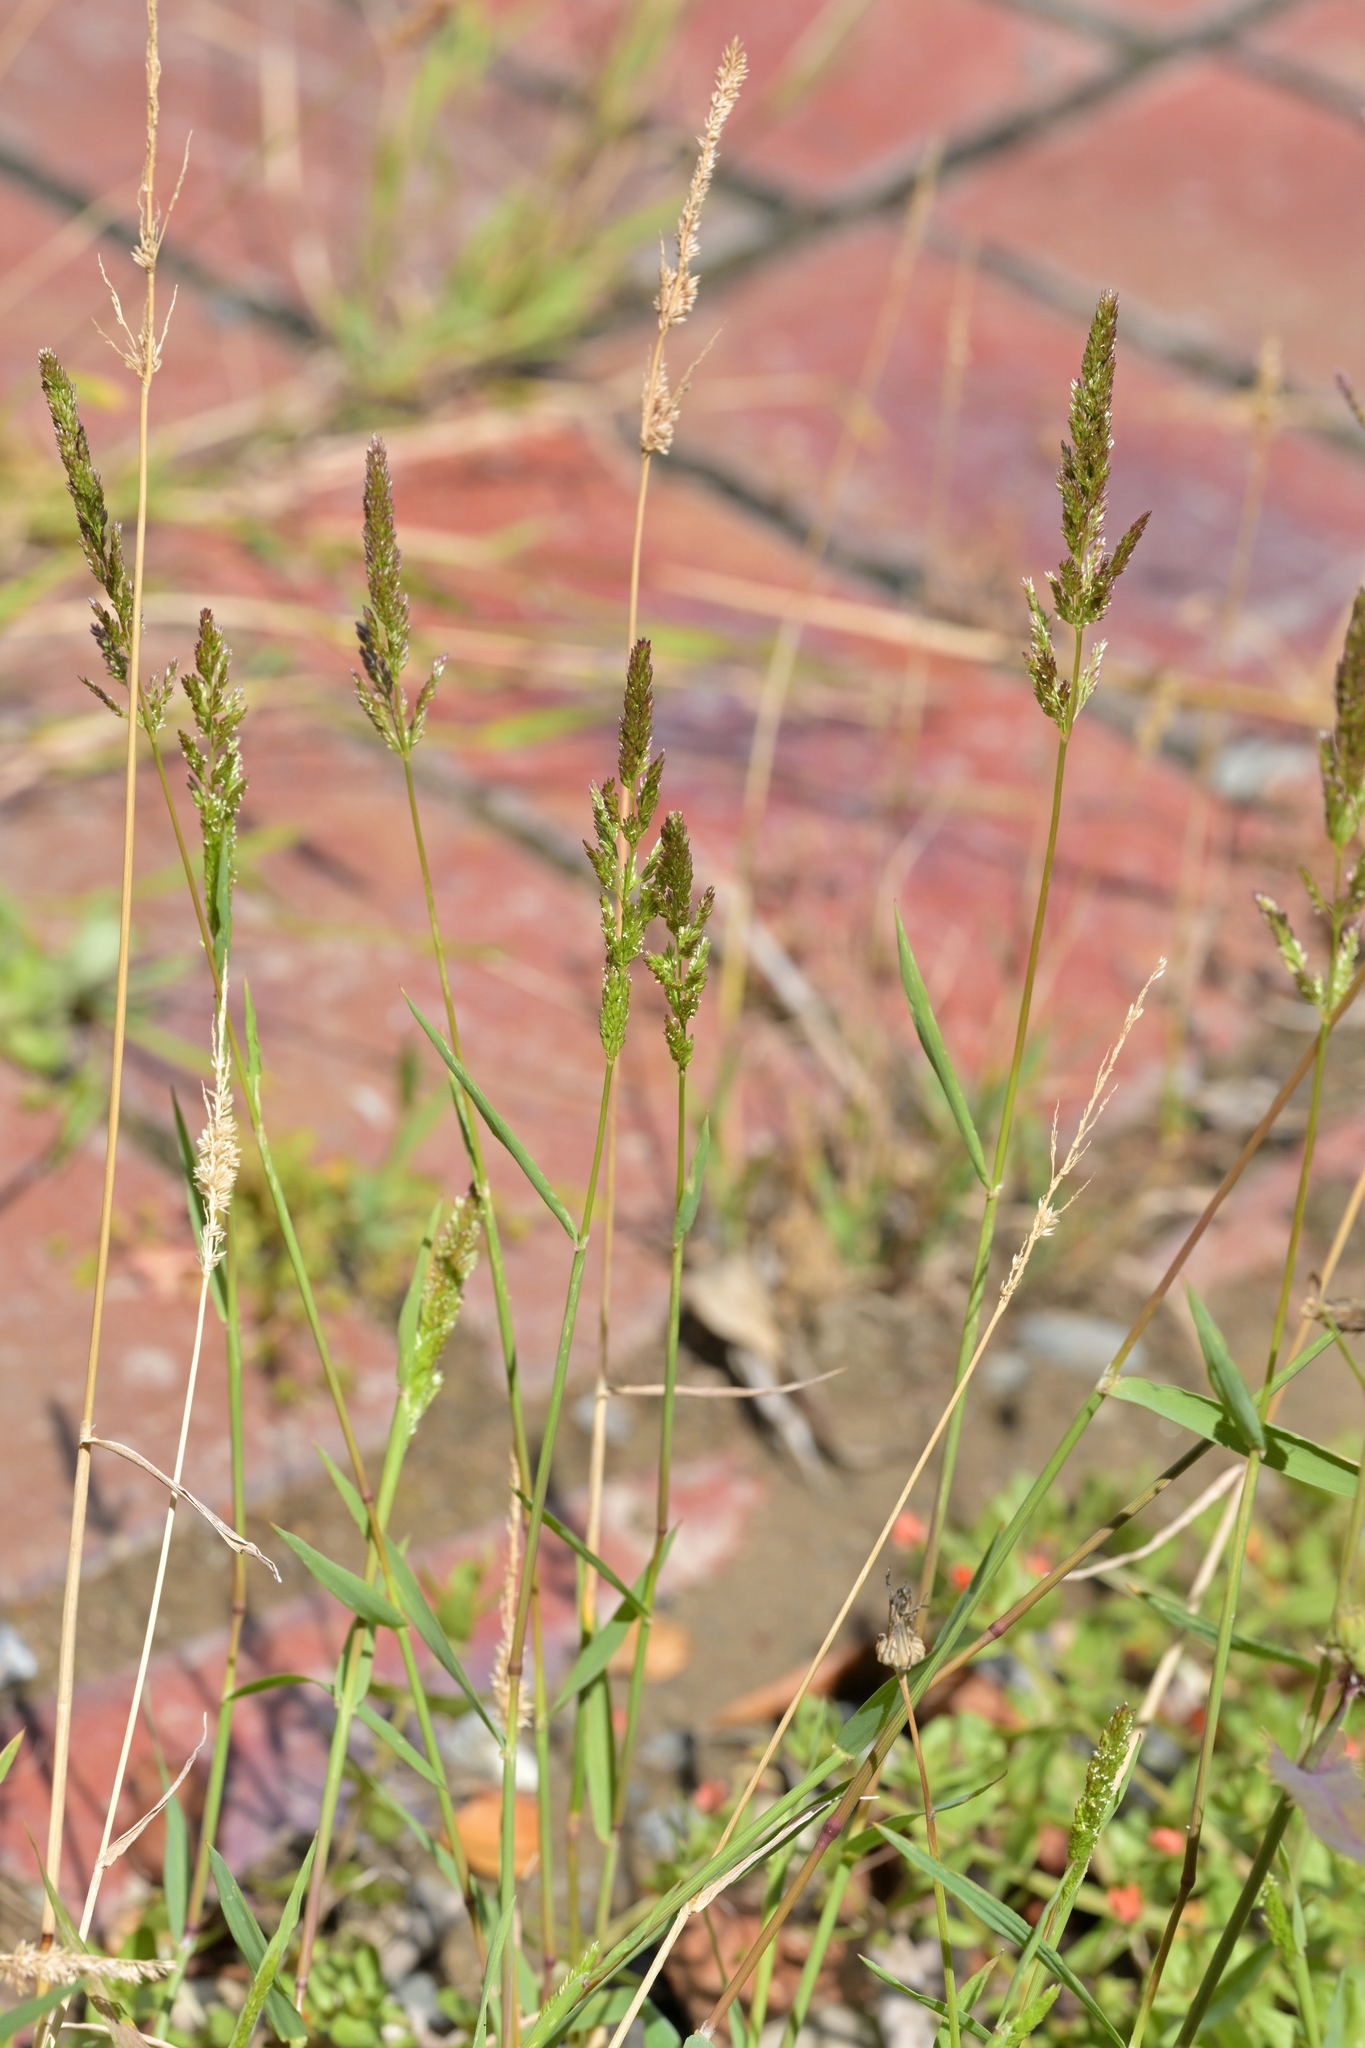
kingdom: Plantae
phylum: Tracheophyta
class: Liliopsida
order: Poales
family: Poaceae
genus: Polypogon
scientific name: Polypogon viridis
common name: Water bent
